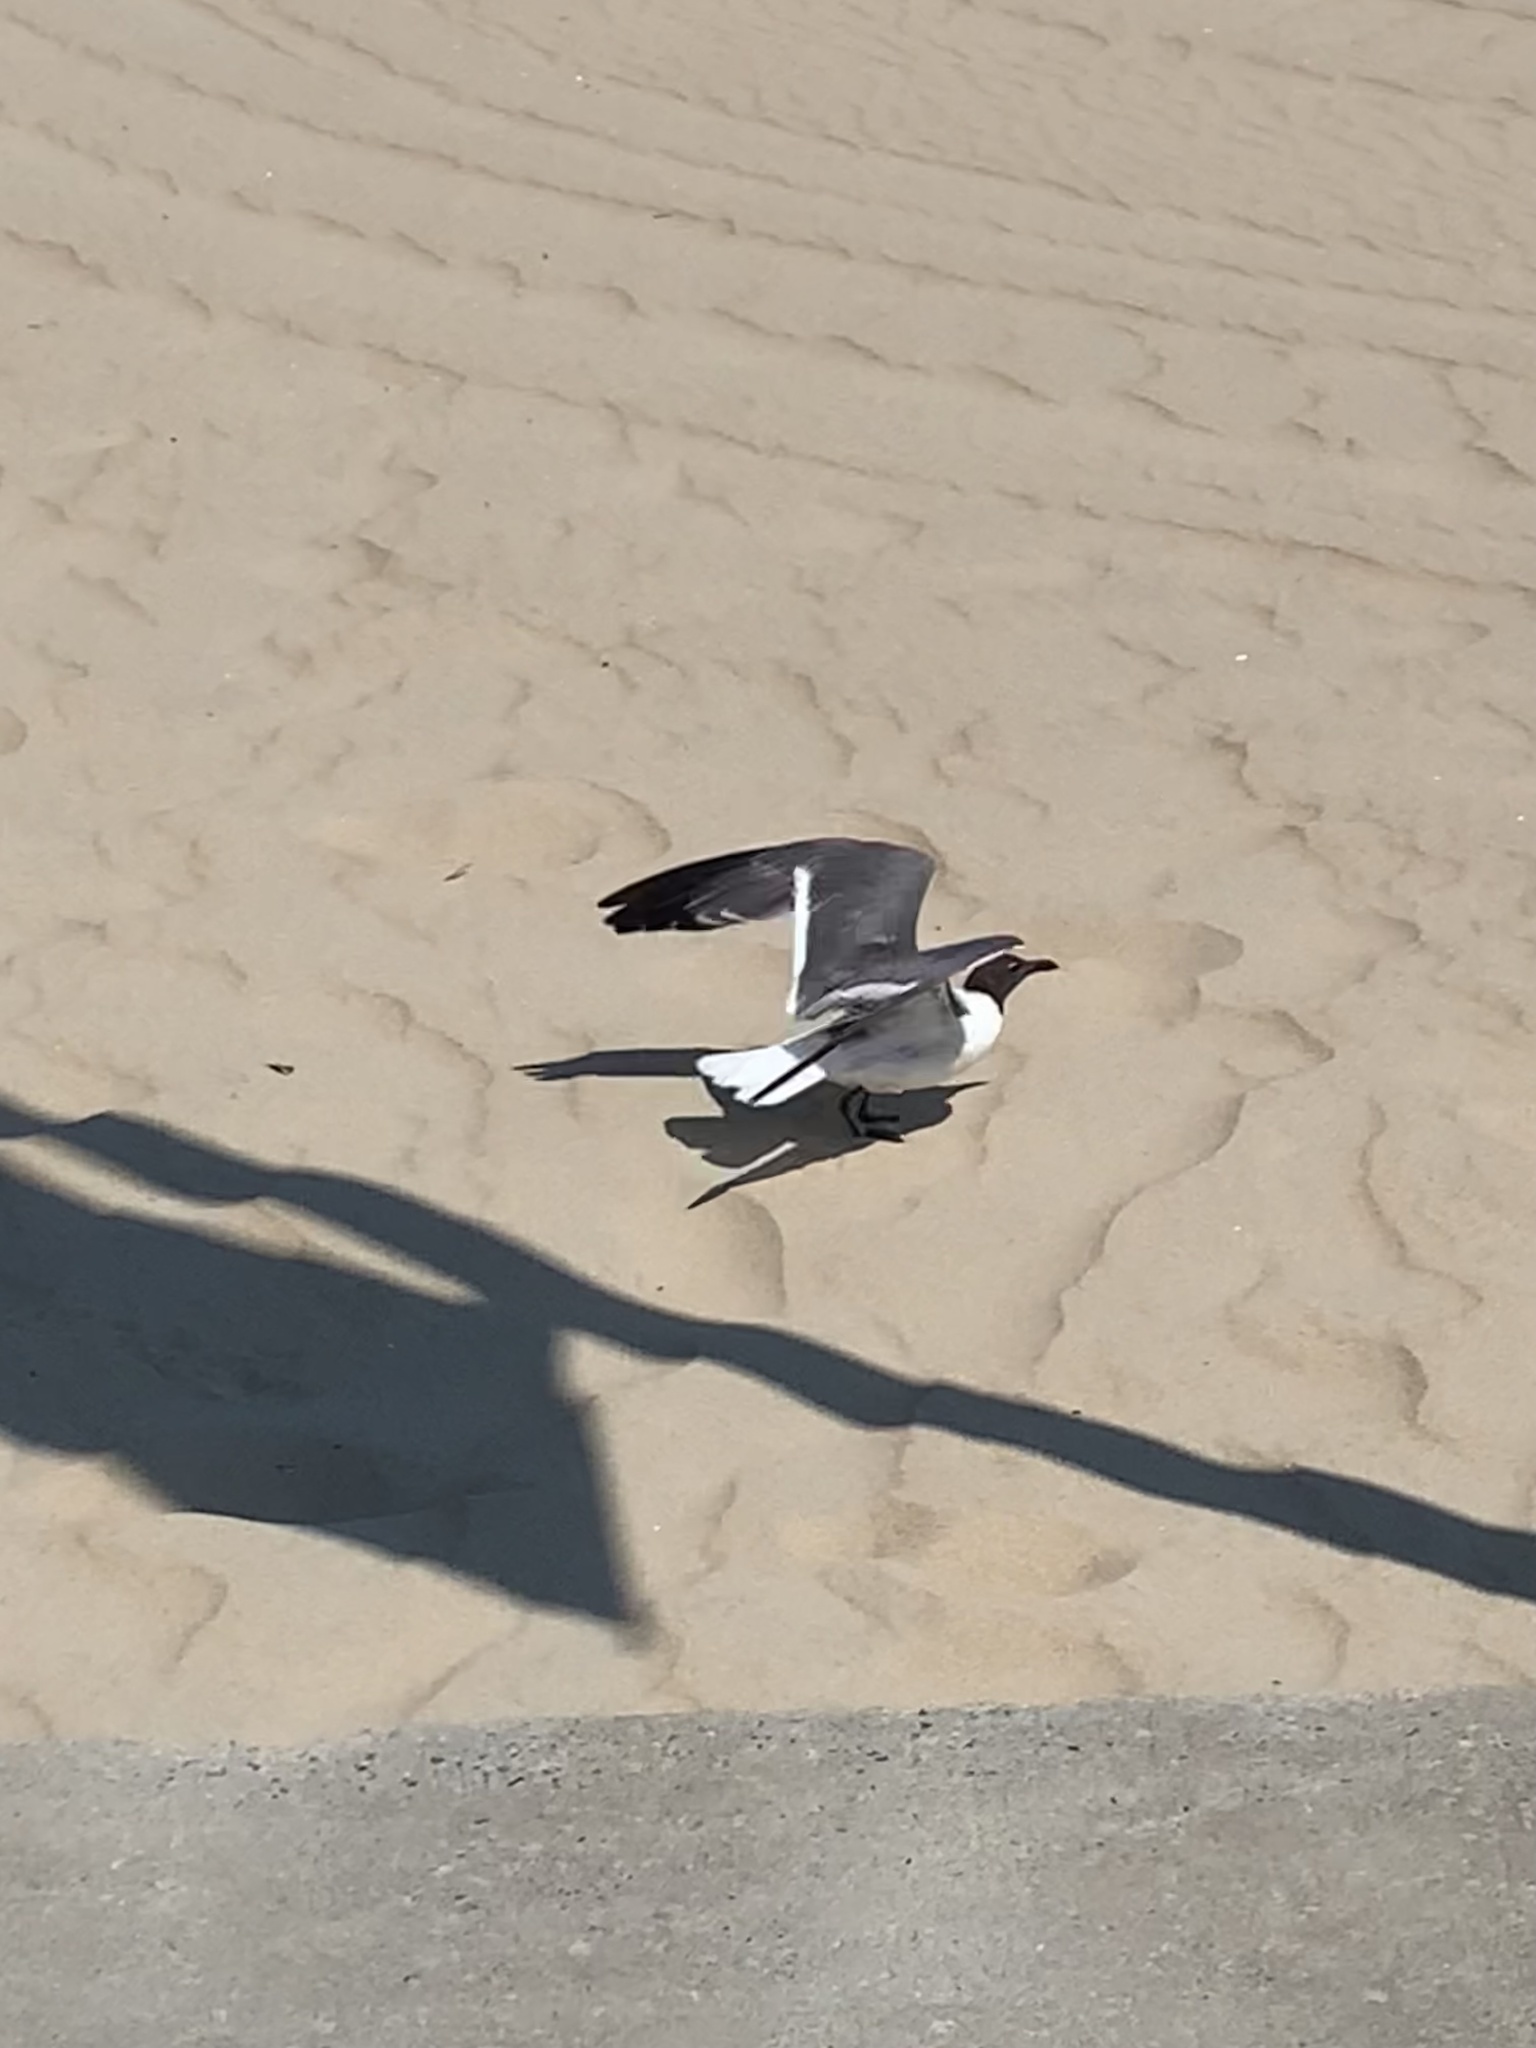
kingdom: Animalia
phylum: Chordata
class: Aves
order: Charadriiformes
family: Laridae
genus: Leucophaeus
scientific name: Leucophaeus atricilla
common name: Laughing gull
